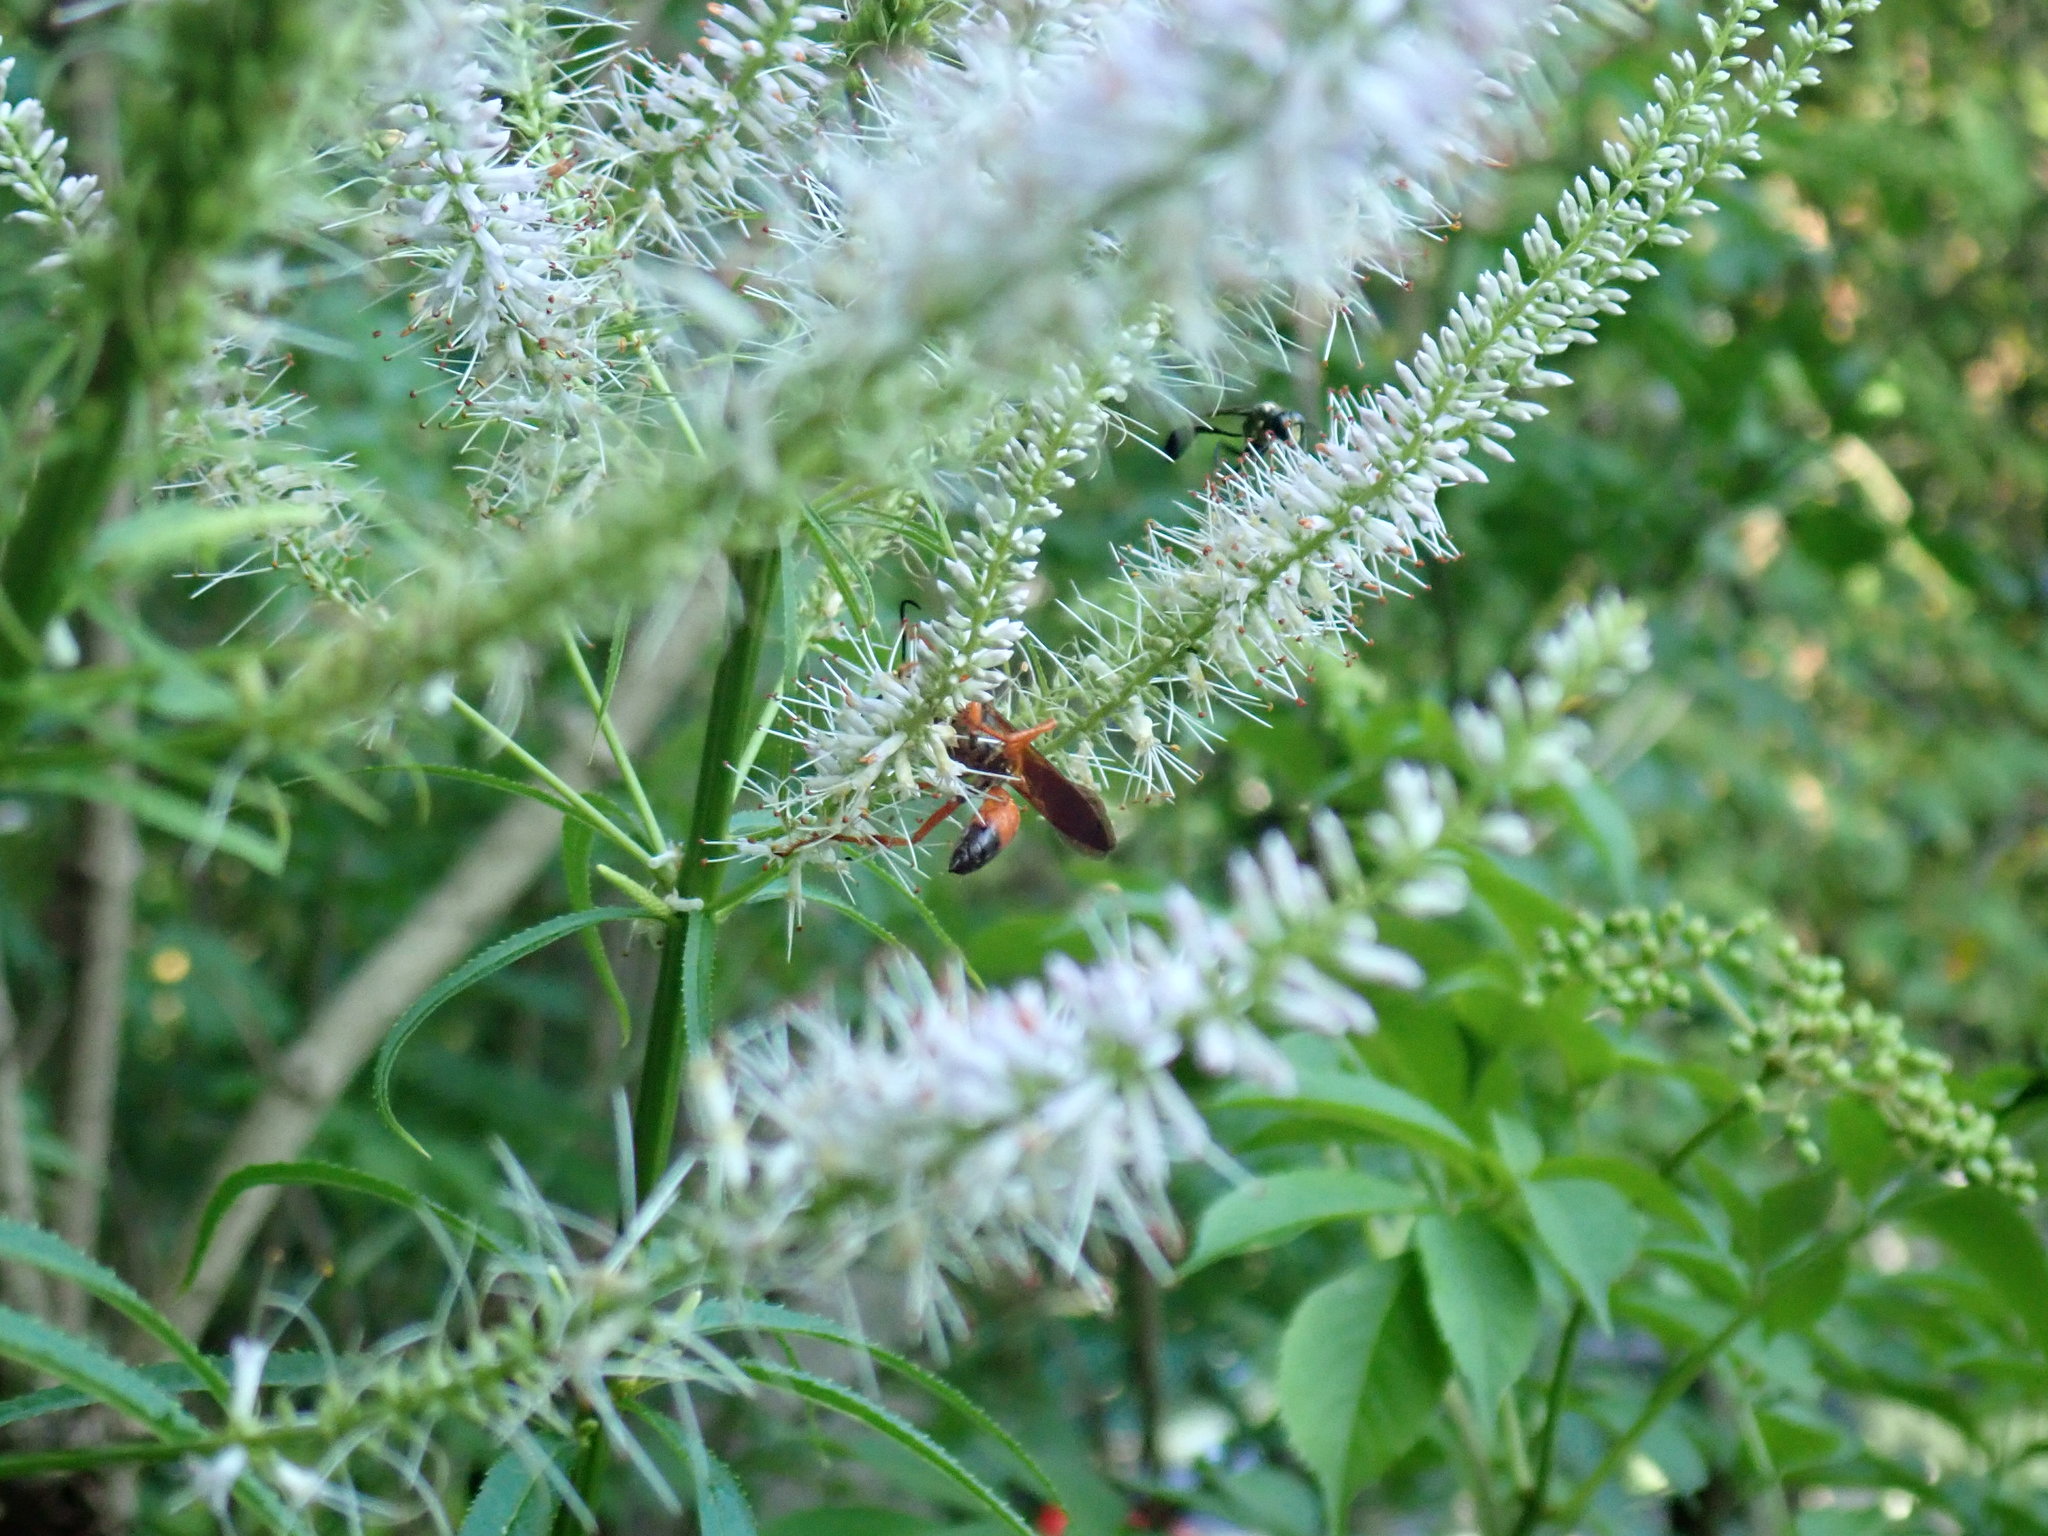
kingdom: Animalia
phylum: Arthropoda
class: Insecta
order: Hymenoptera
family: Sphecidae
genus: Sphex
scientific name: Sphex ichneumoneus
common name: Great golden digger wasp
